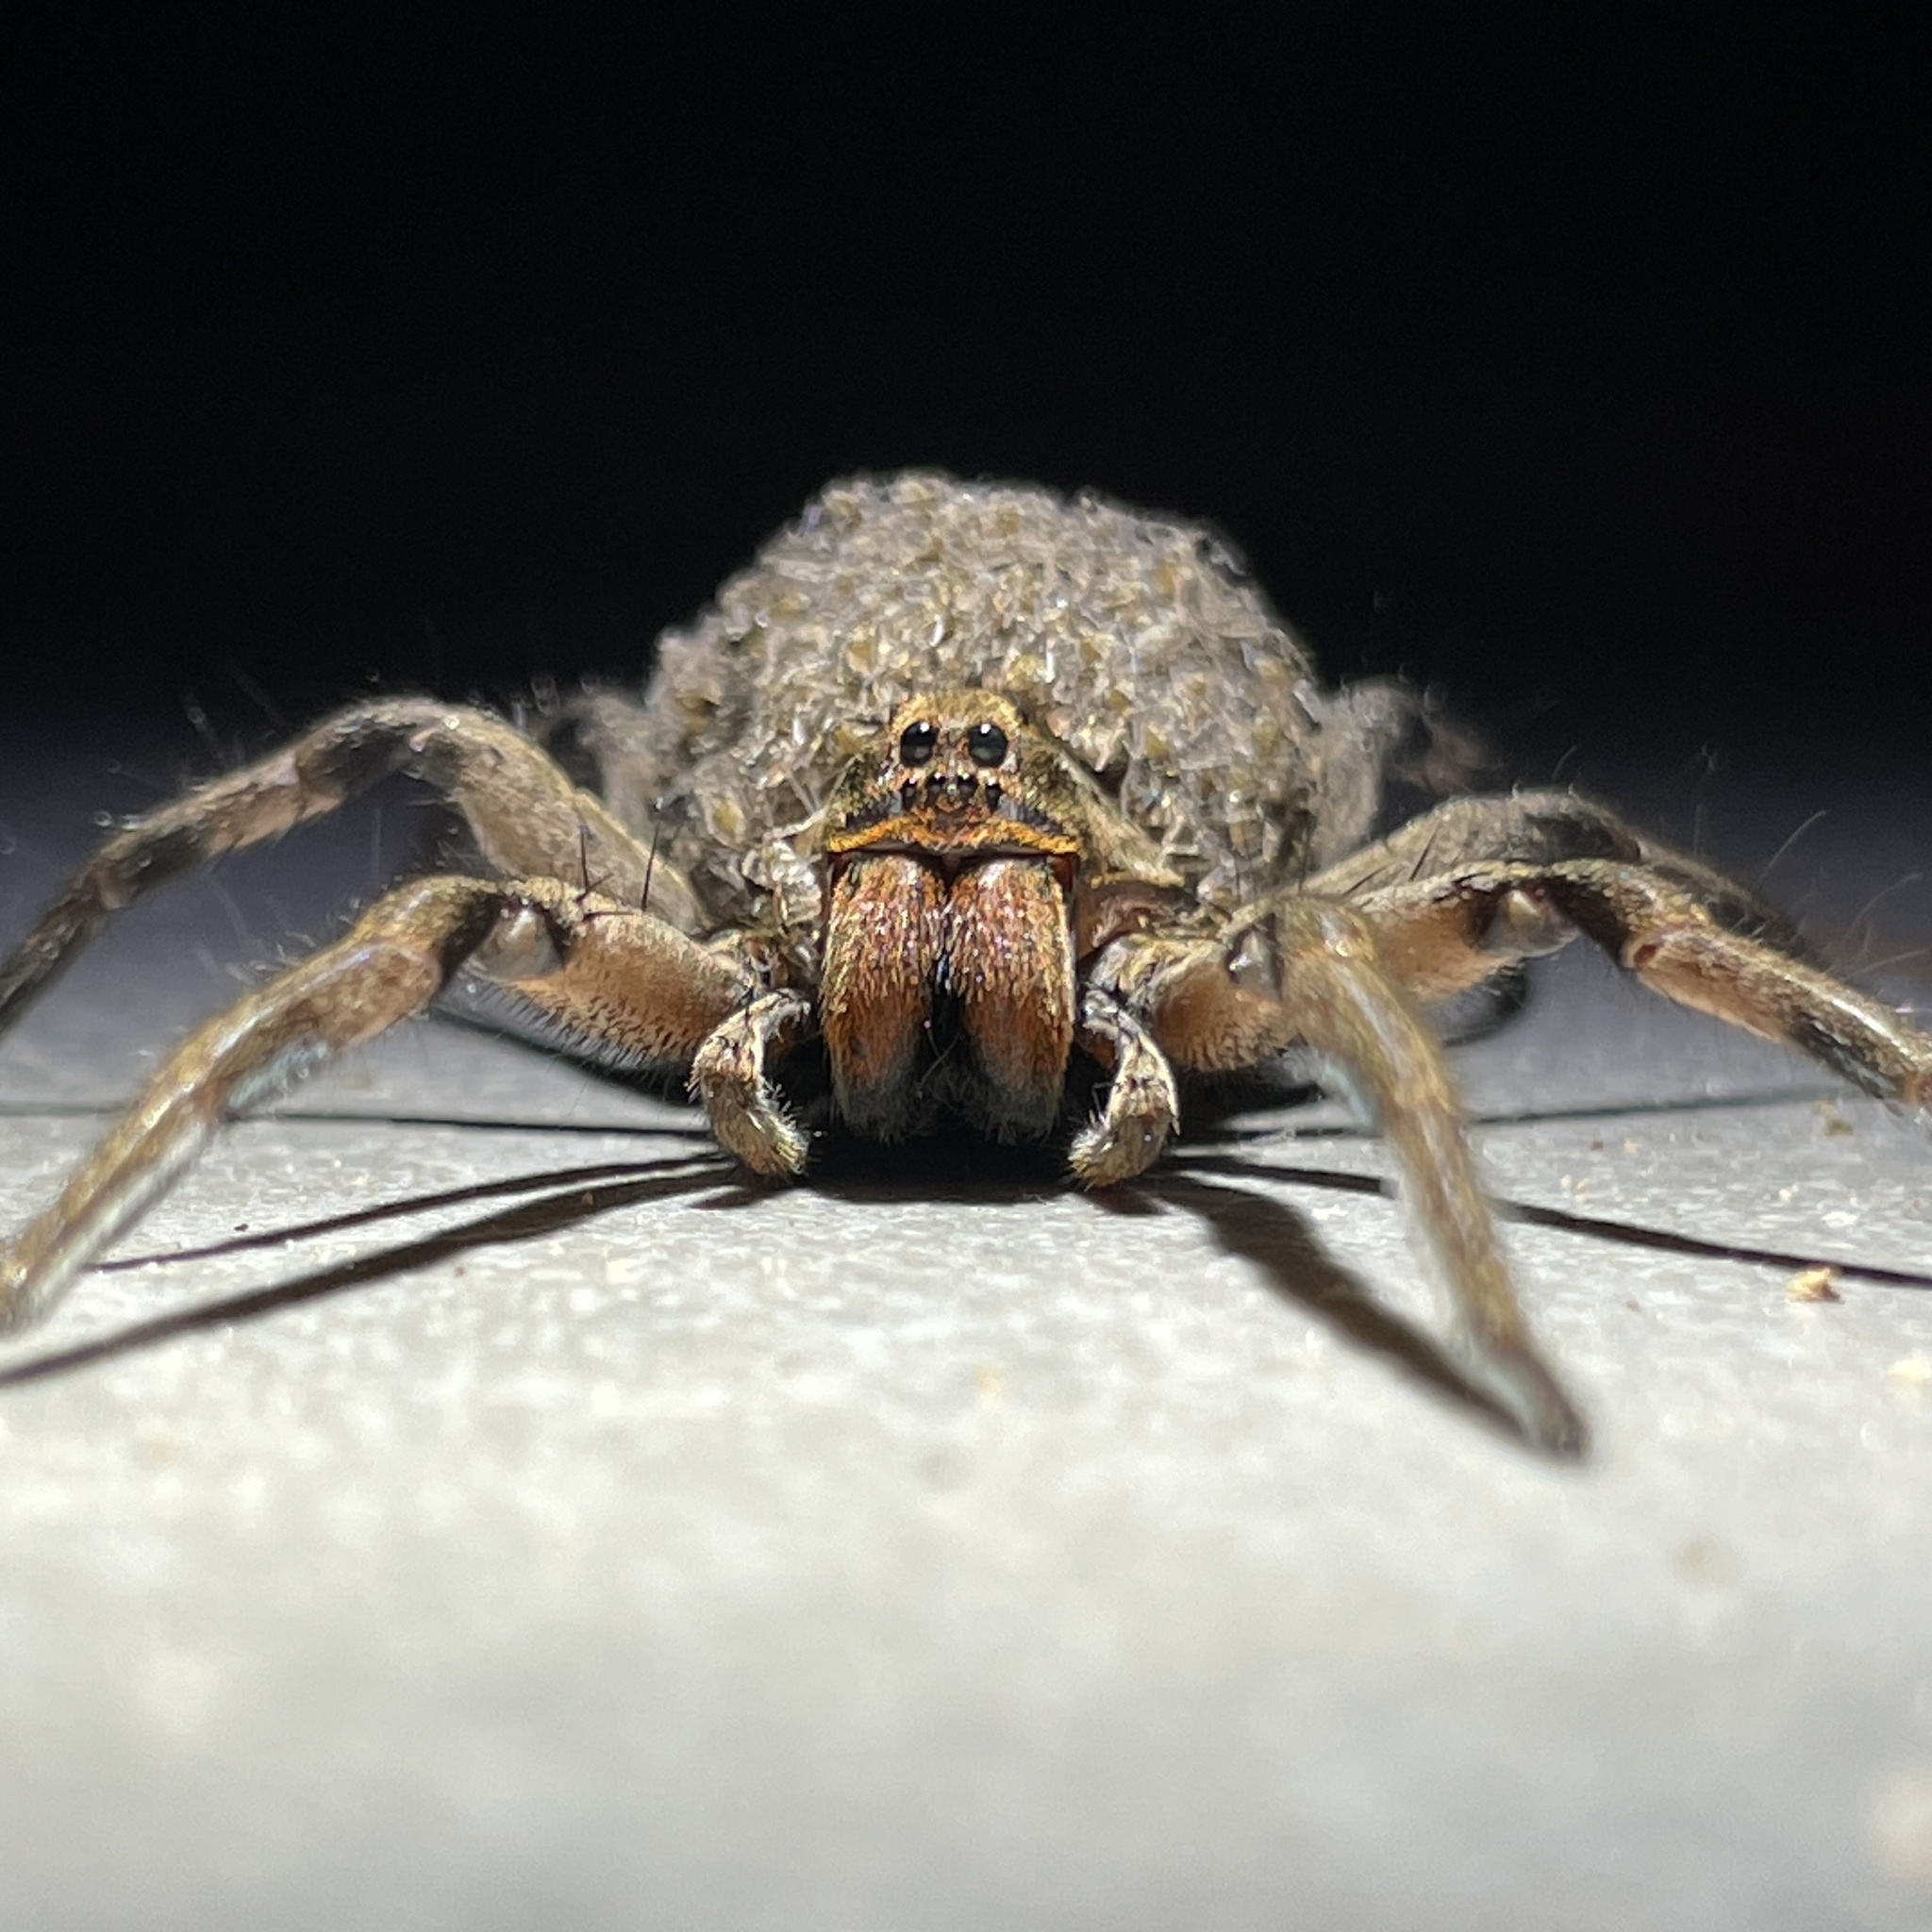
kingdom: Animalia
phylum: Arthropoda
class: Arachnida
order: Araneae
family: Lycosidae
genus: Lycosa
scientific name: Lycosa erythrognatha
